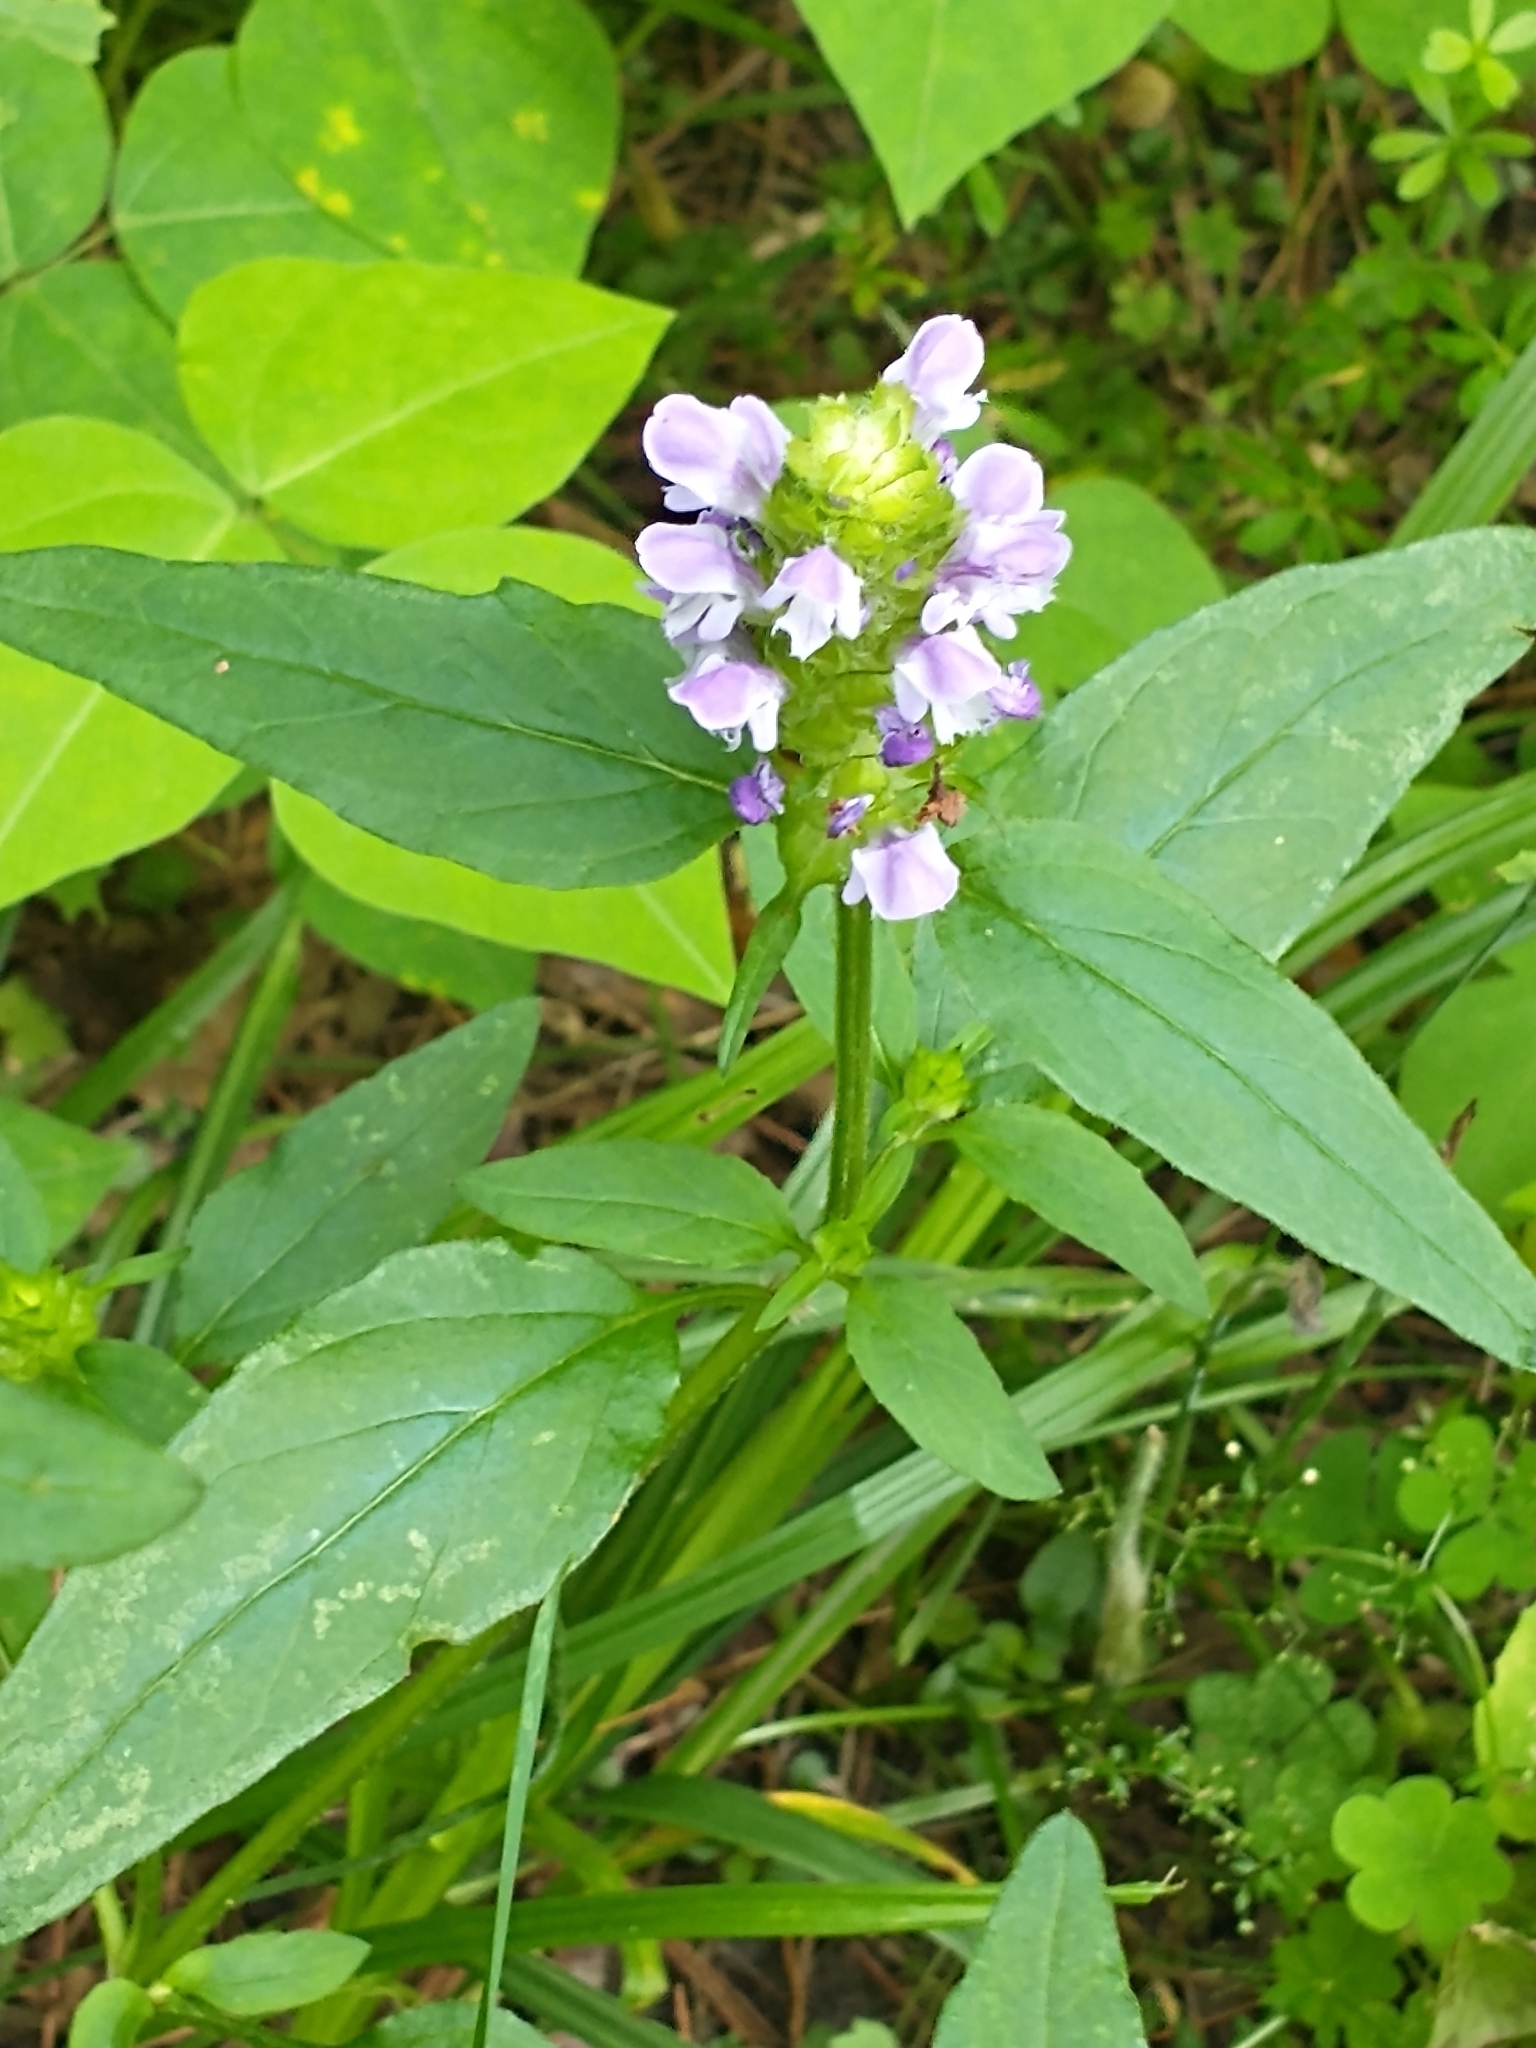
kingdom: Plantae
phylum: Tracheophyta
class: Magnoliopsida
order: Lamiales
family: Lamiaceae
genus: Prunella
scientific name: Prunella vulgaris
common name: Heal-all
